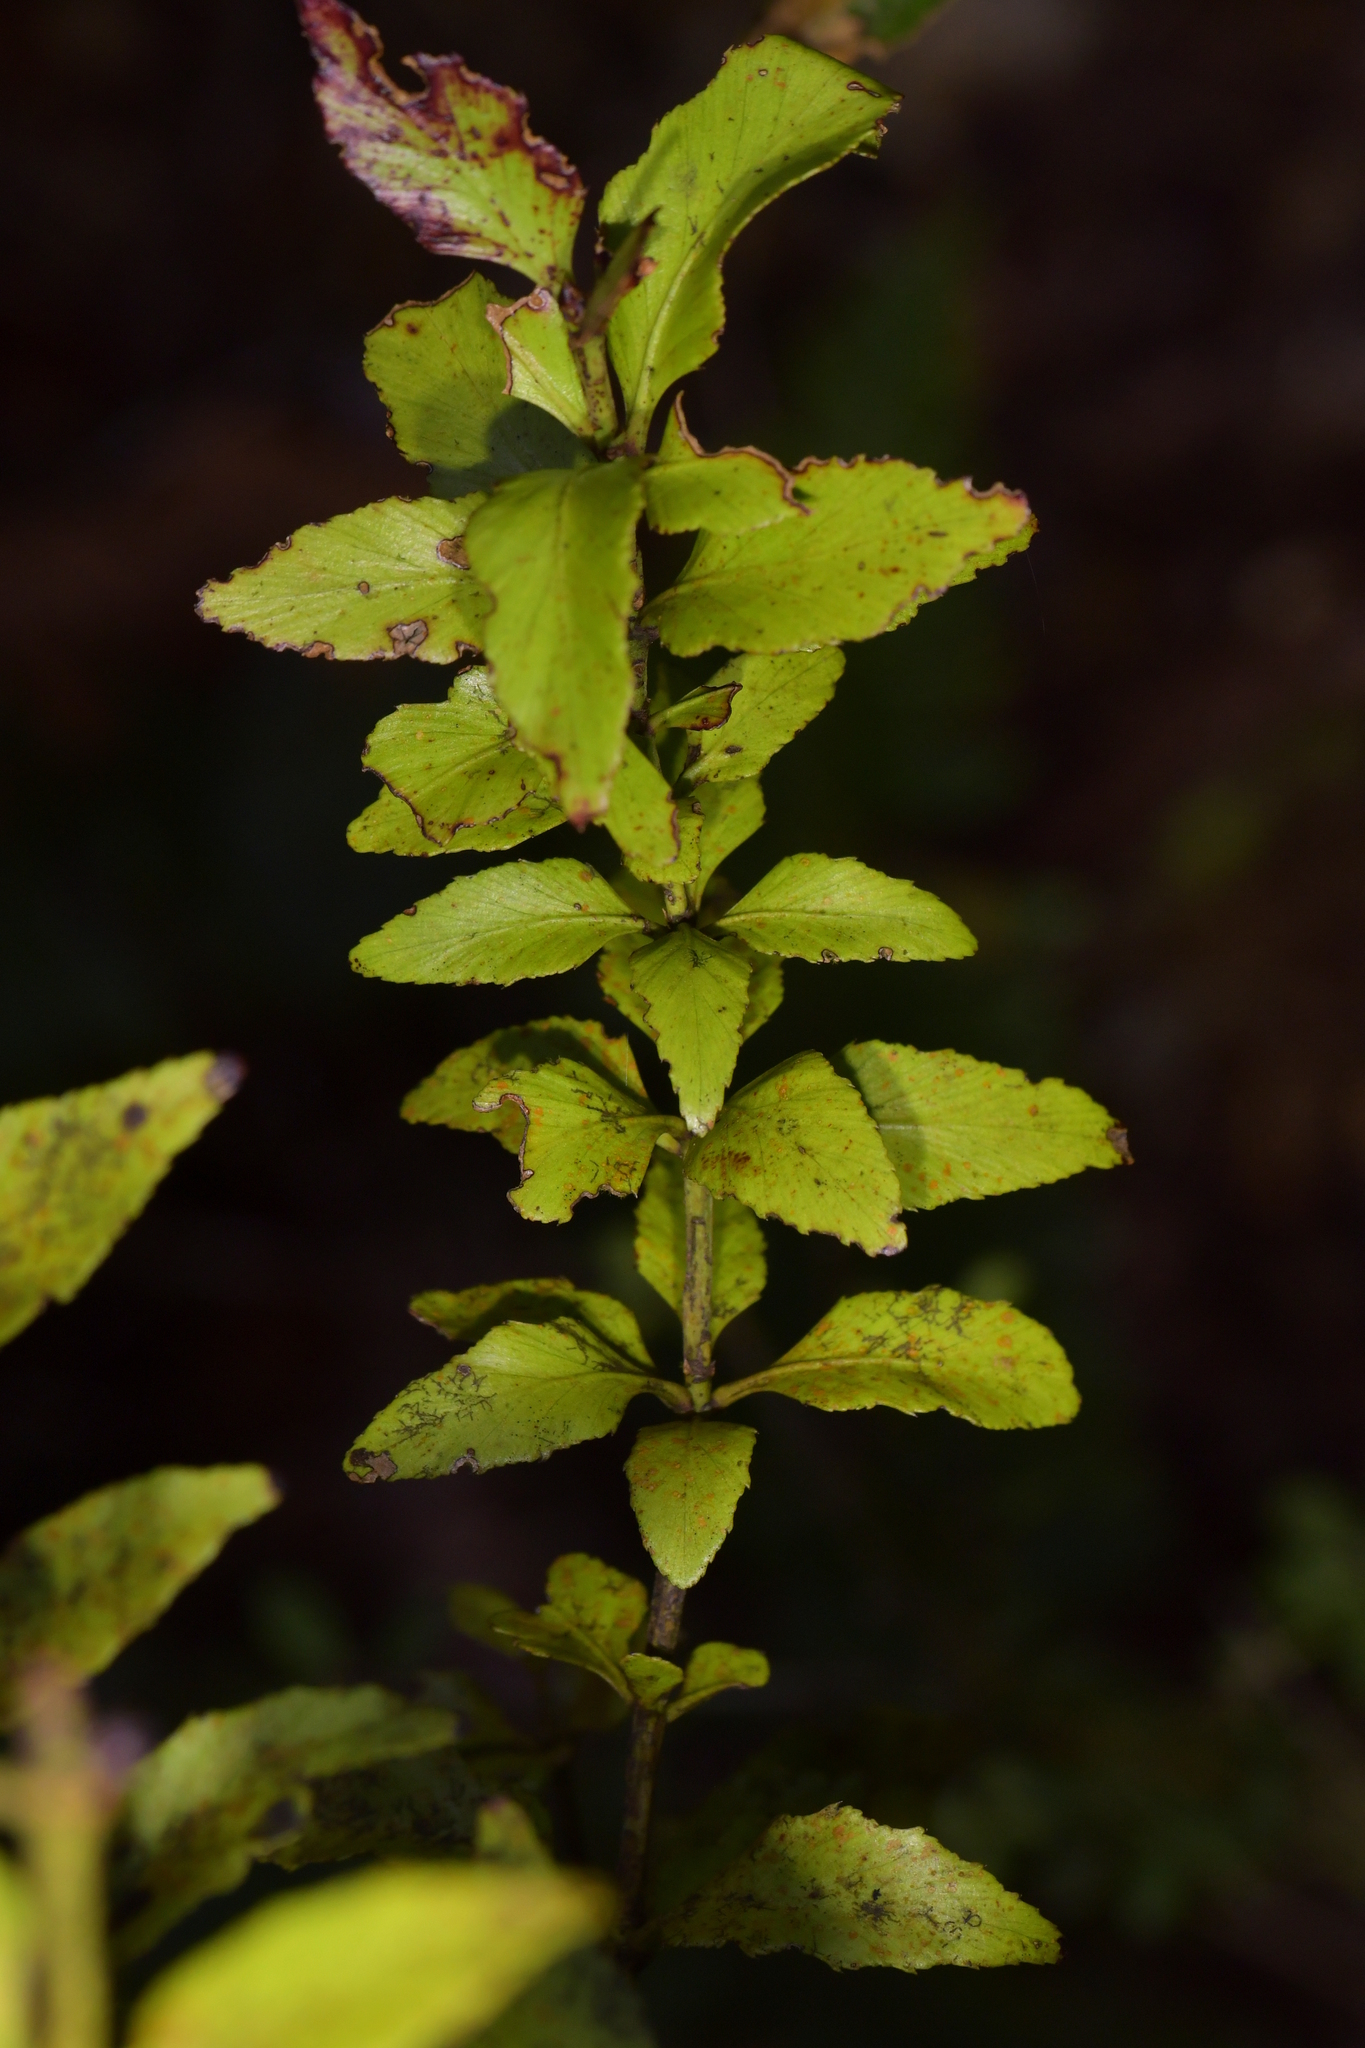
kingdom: Plantae
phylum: Tracheophyta
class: Pinopsida
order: Pinales
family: Phyllocladaceae
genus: Phyllocladus
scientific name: Phyllocladus trichomanoides
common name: Celery pine
